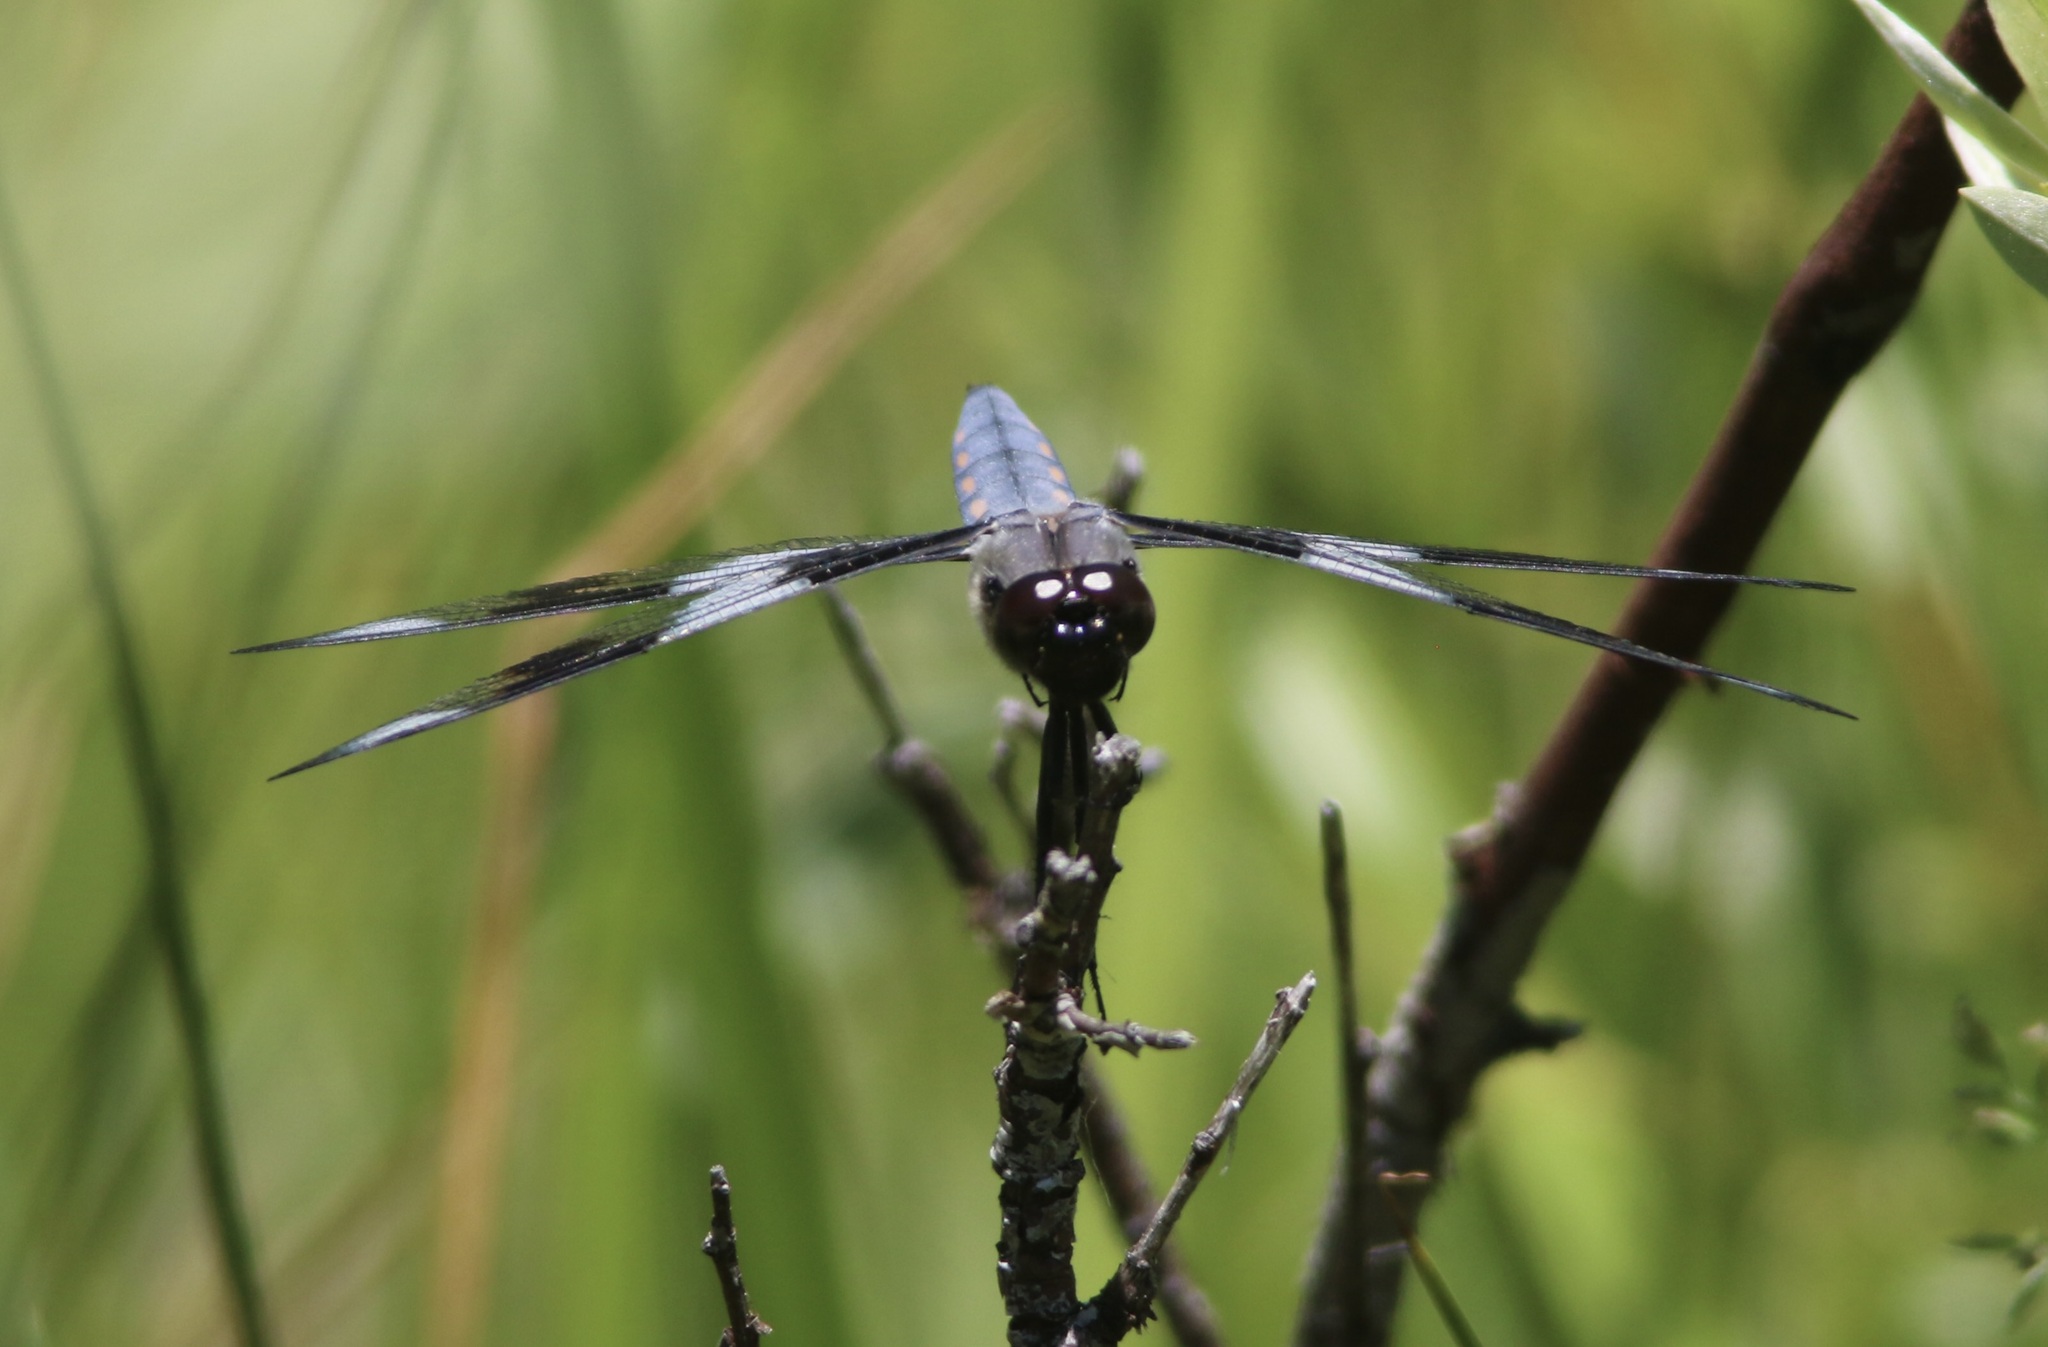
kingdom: Animalia
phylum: Arthropoda
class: Insecta
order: Odonata
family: Libellulidae
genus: Libellula
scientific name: Libellula forensis
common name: Eight-spotted skimmer
